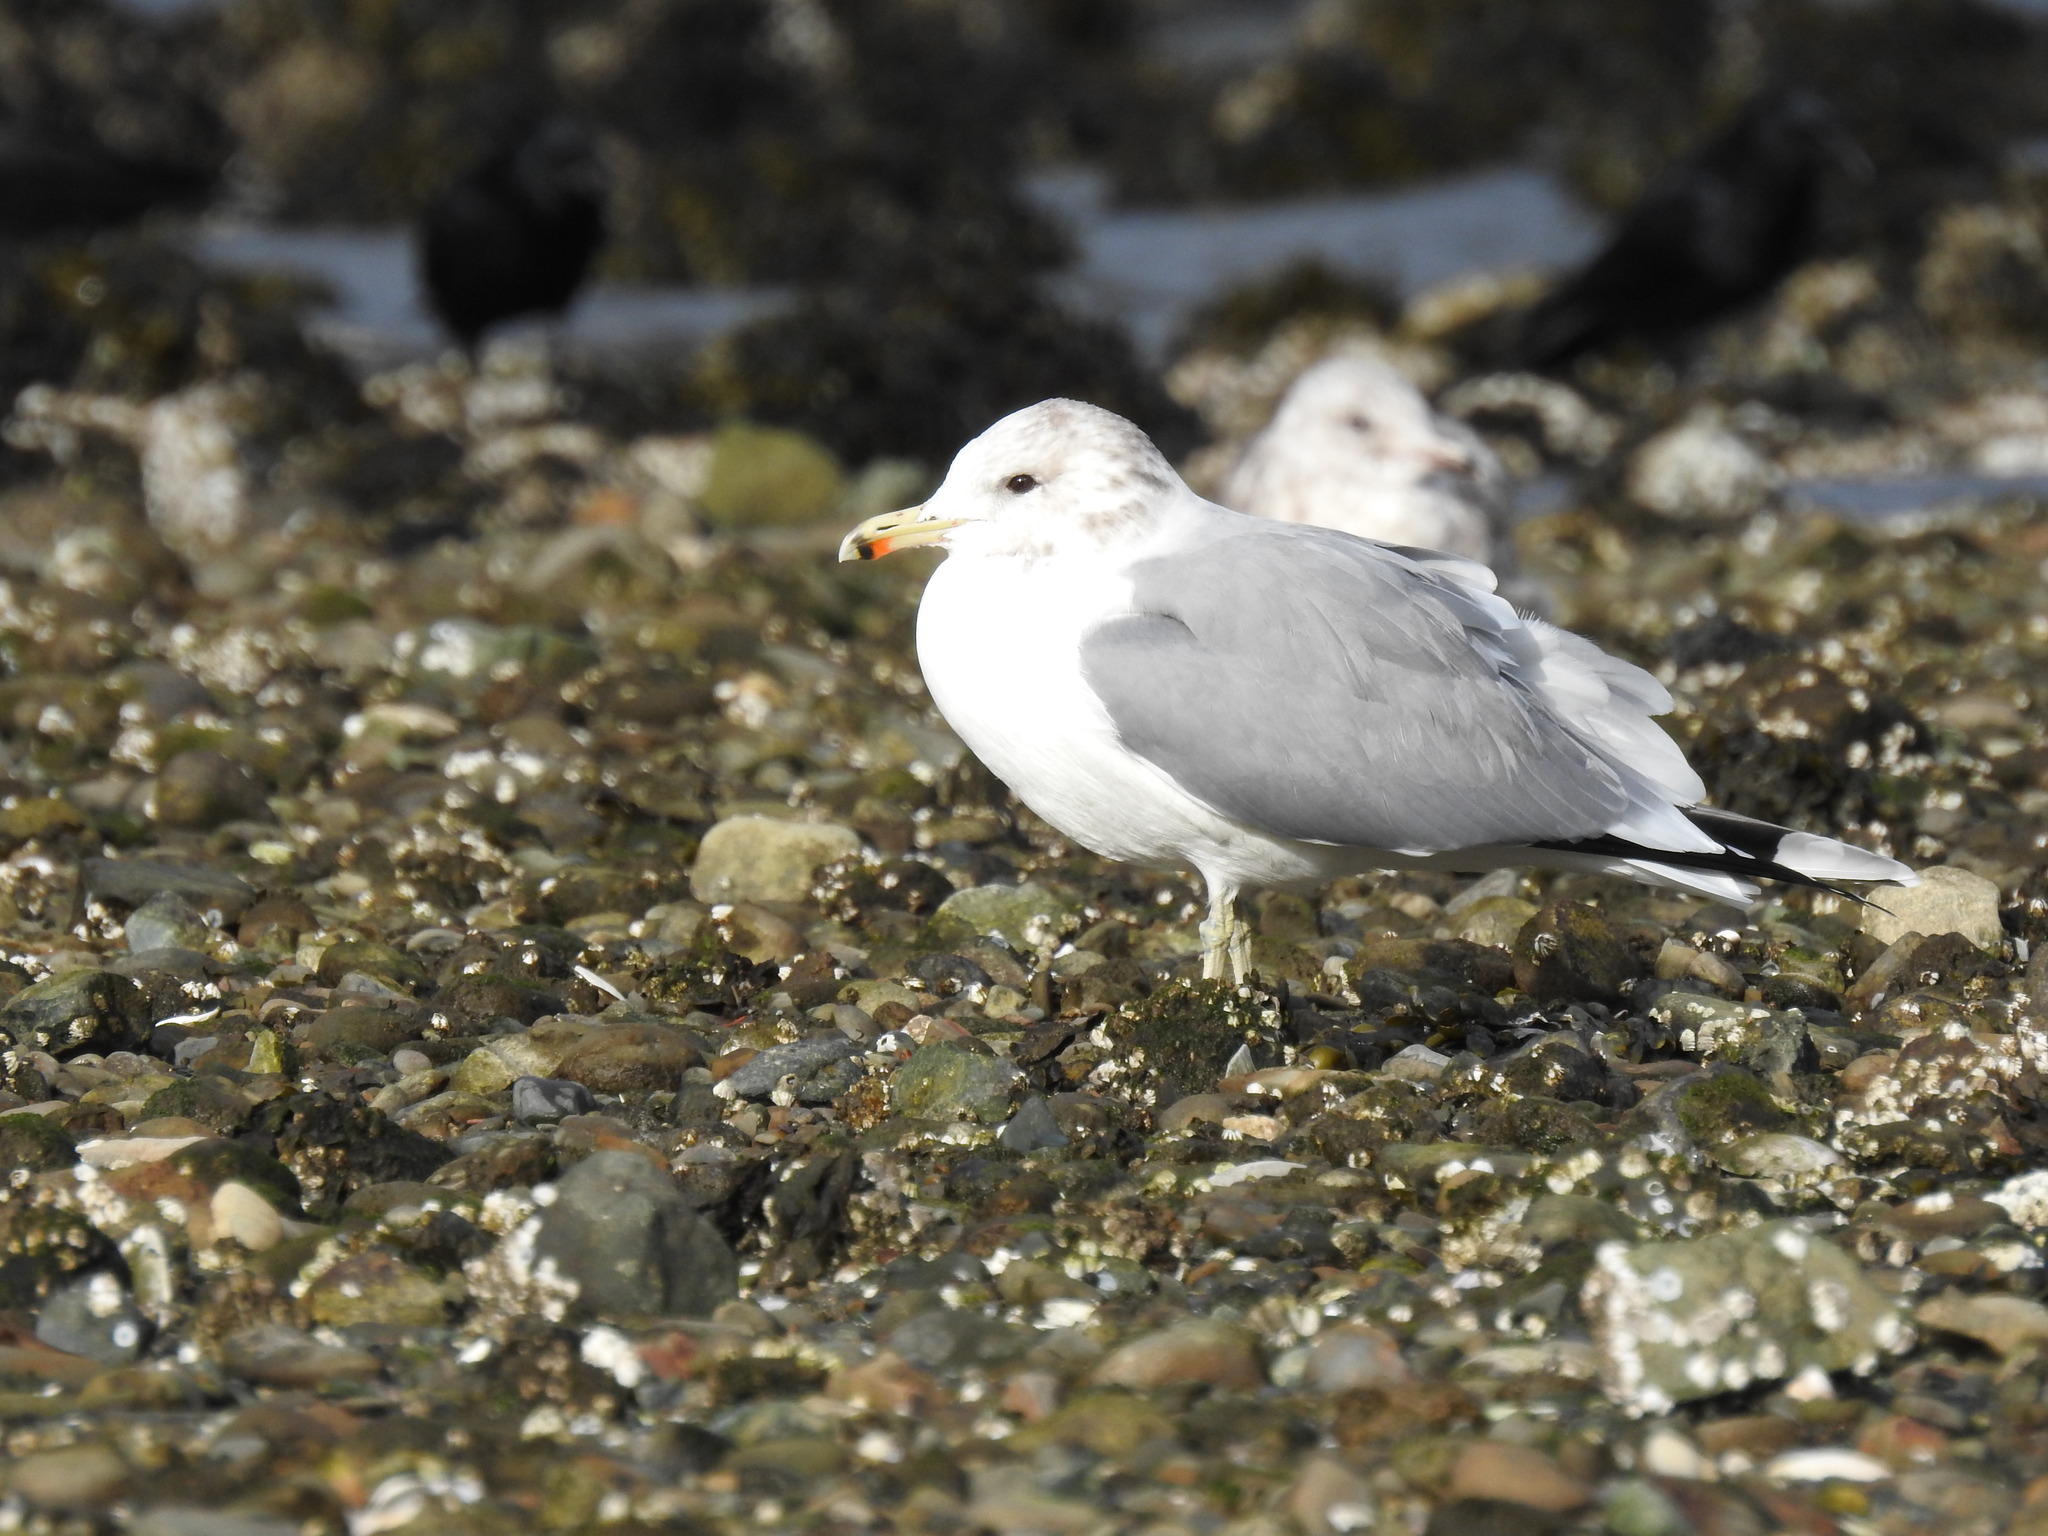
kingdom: Animalia
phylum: Chordata
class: Aves
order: Charadriiformes
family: Laridae
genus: Larus
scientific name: Larus californicus
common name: California gull
